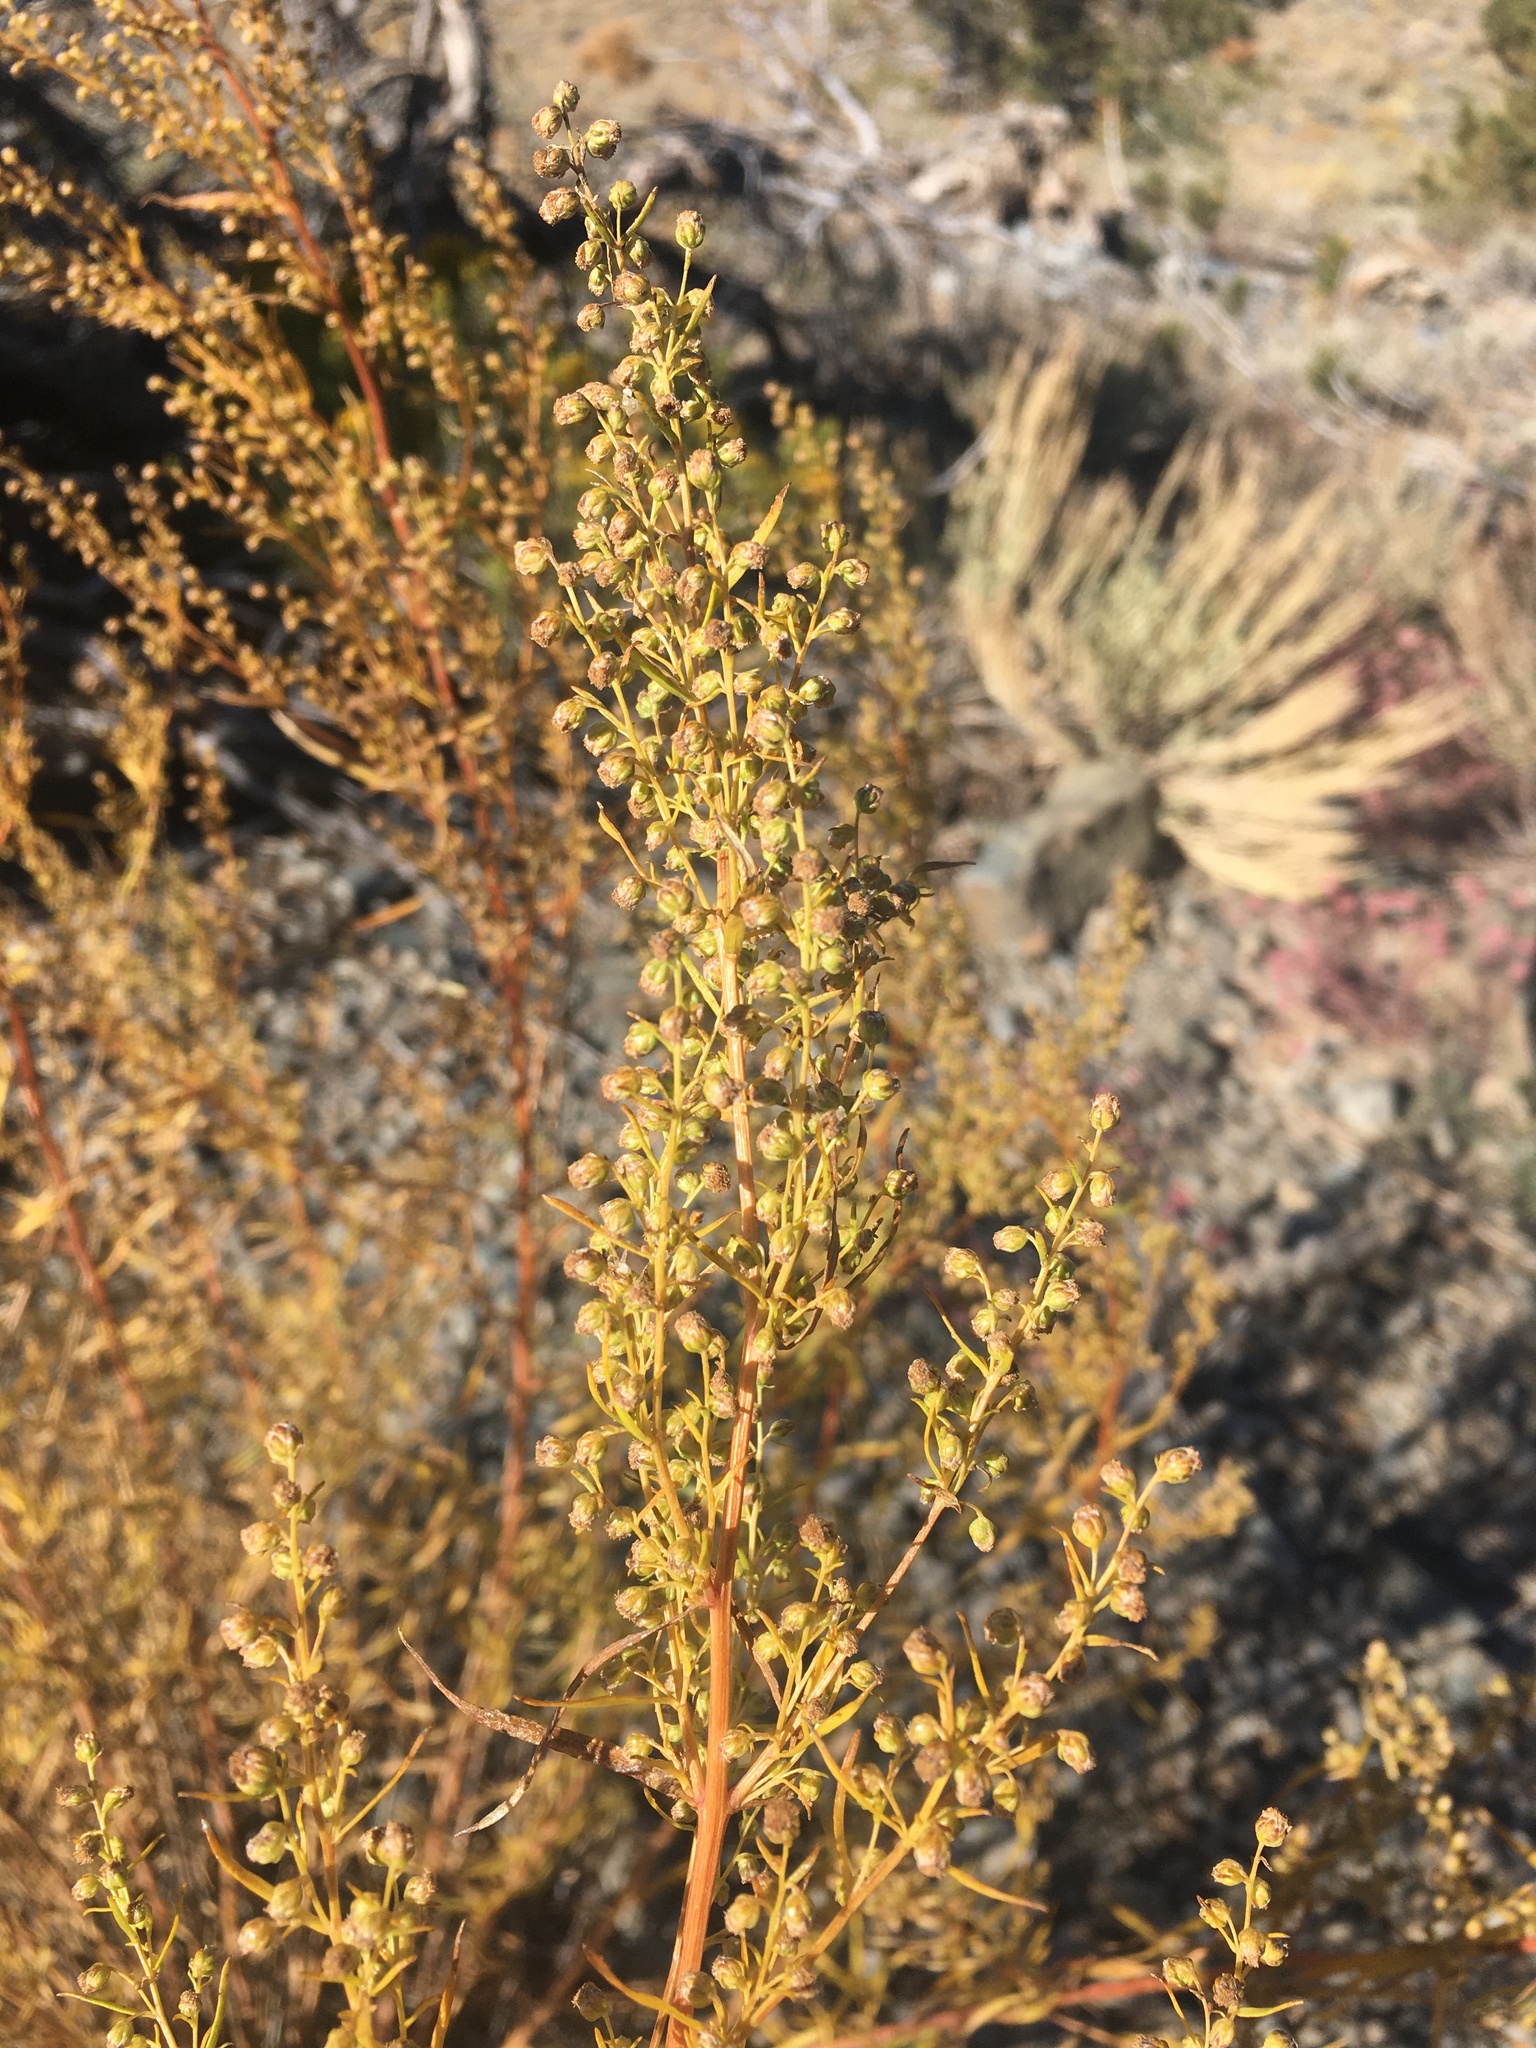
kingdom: Plantae
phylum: Tracheophyta
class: Magnoliopsida
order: Asterales
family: Asteraceae
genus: Artemisia
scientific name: Artemisia dracunculus
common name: Tarragon
